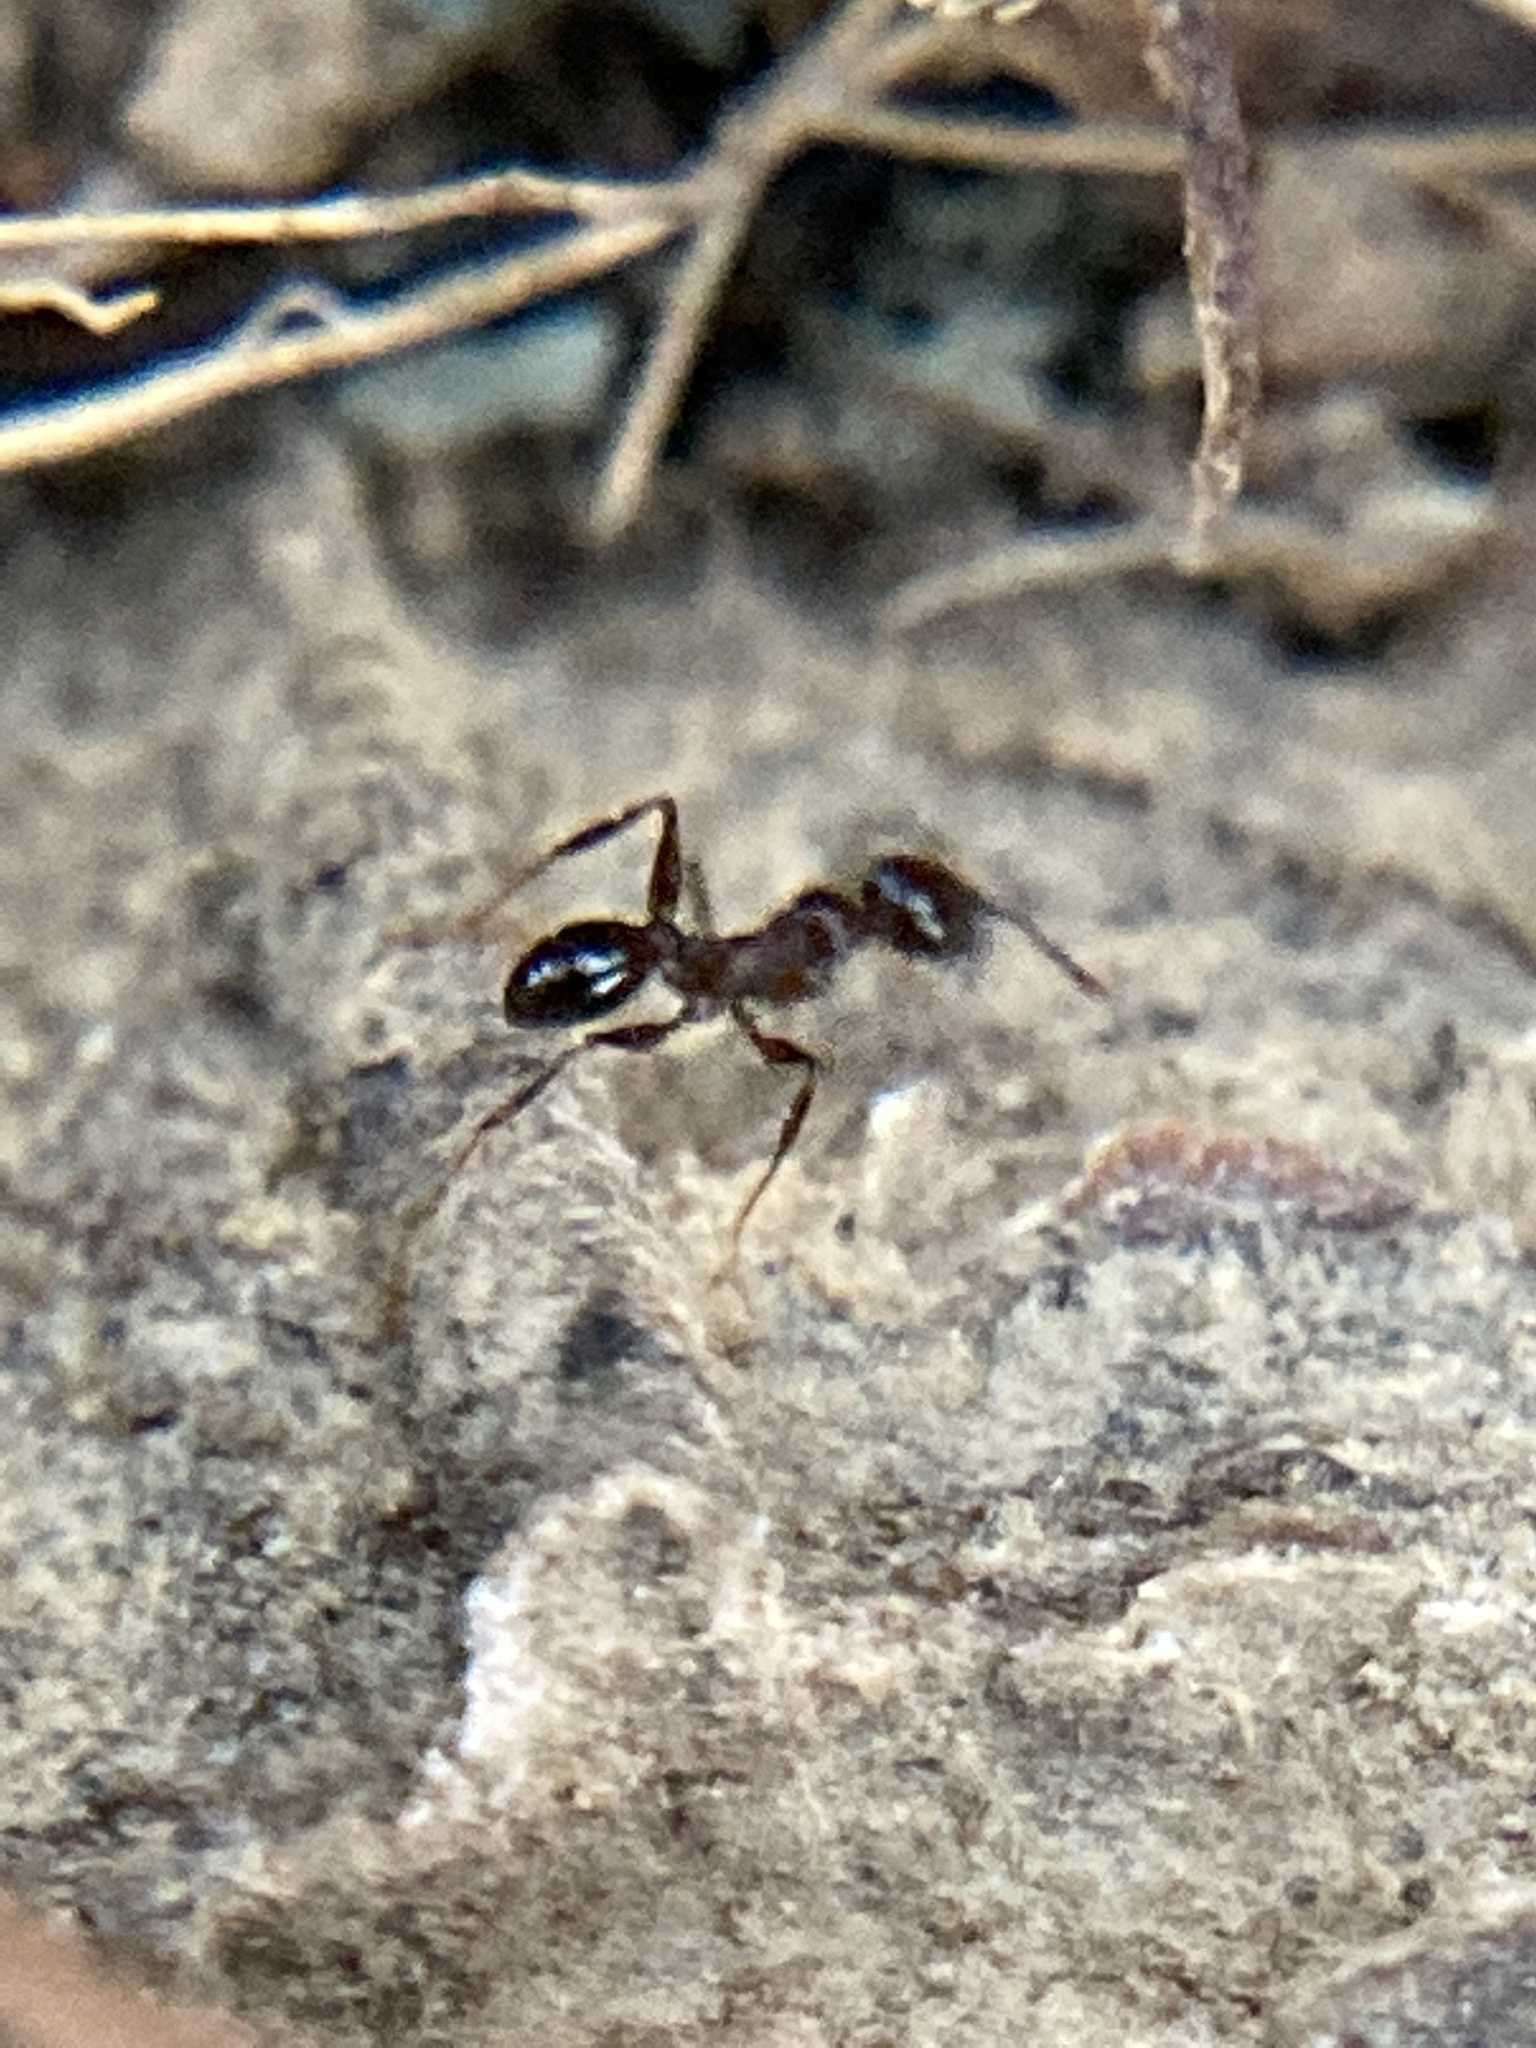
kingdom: Animalia
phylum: Arthropoda
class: Insecta
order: Hymenoptera
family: Formicidae
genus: Pheidole
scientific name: Pheidole dentata
